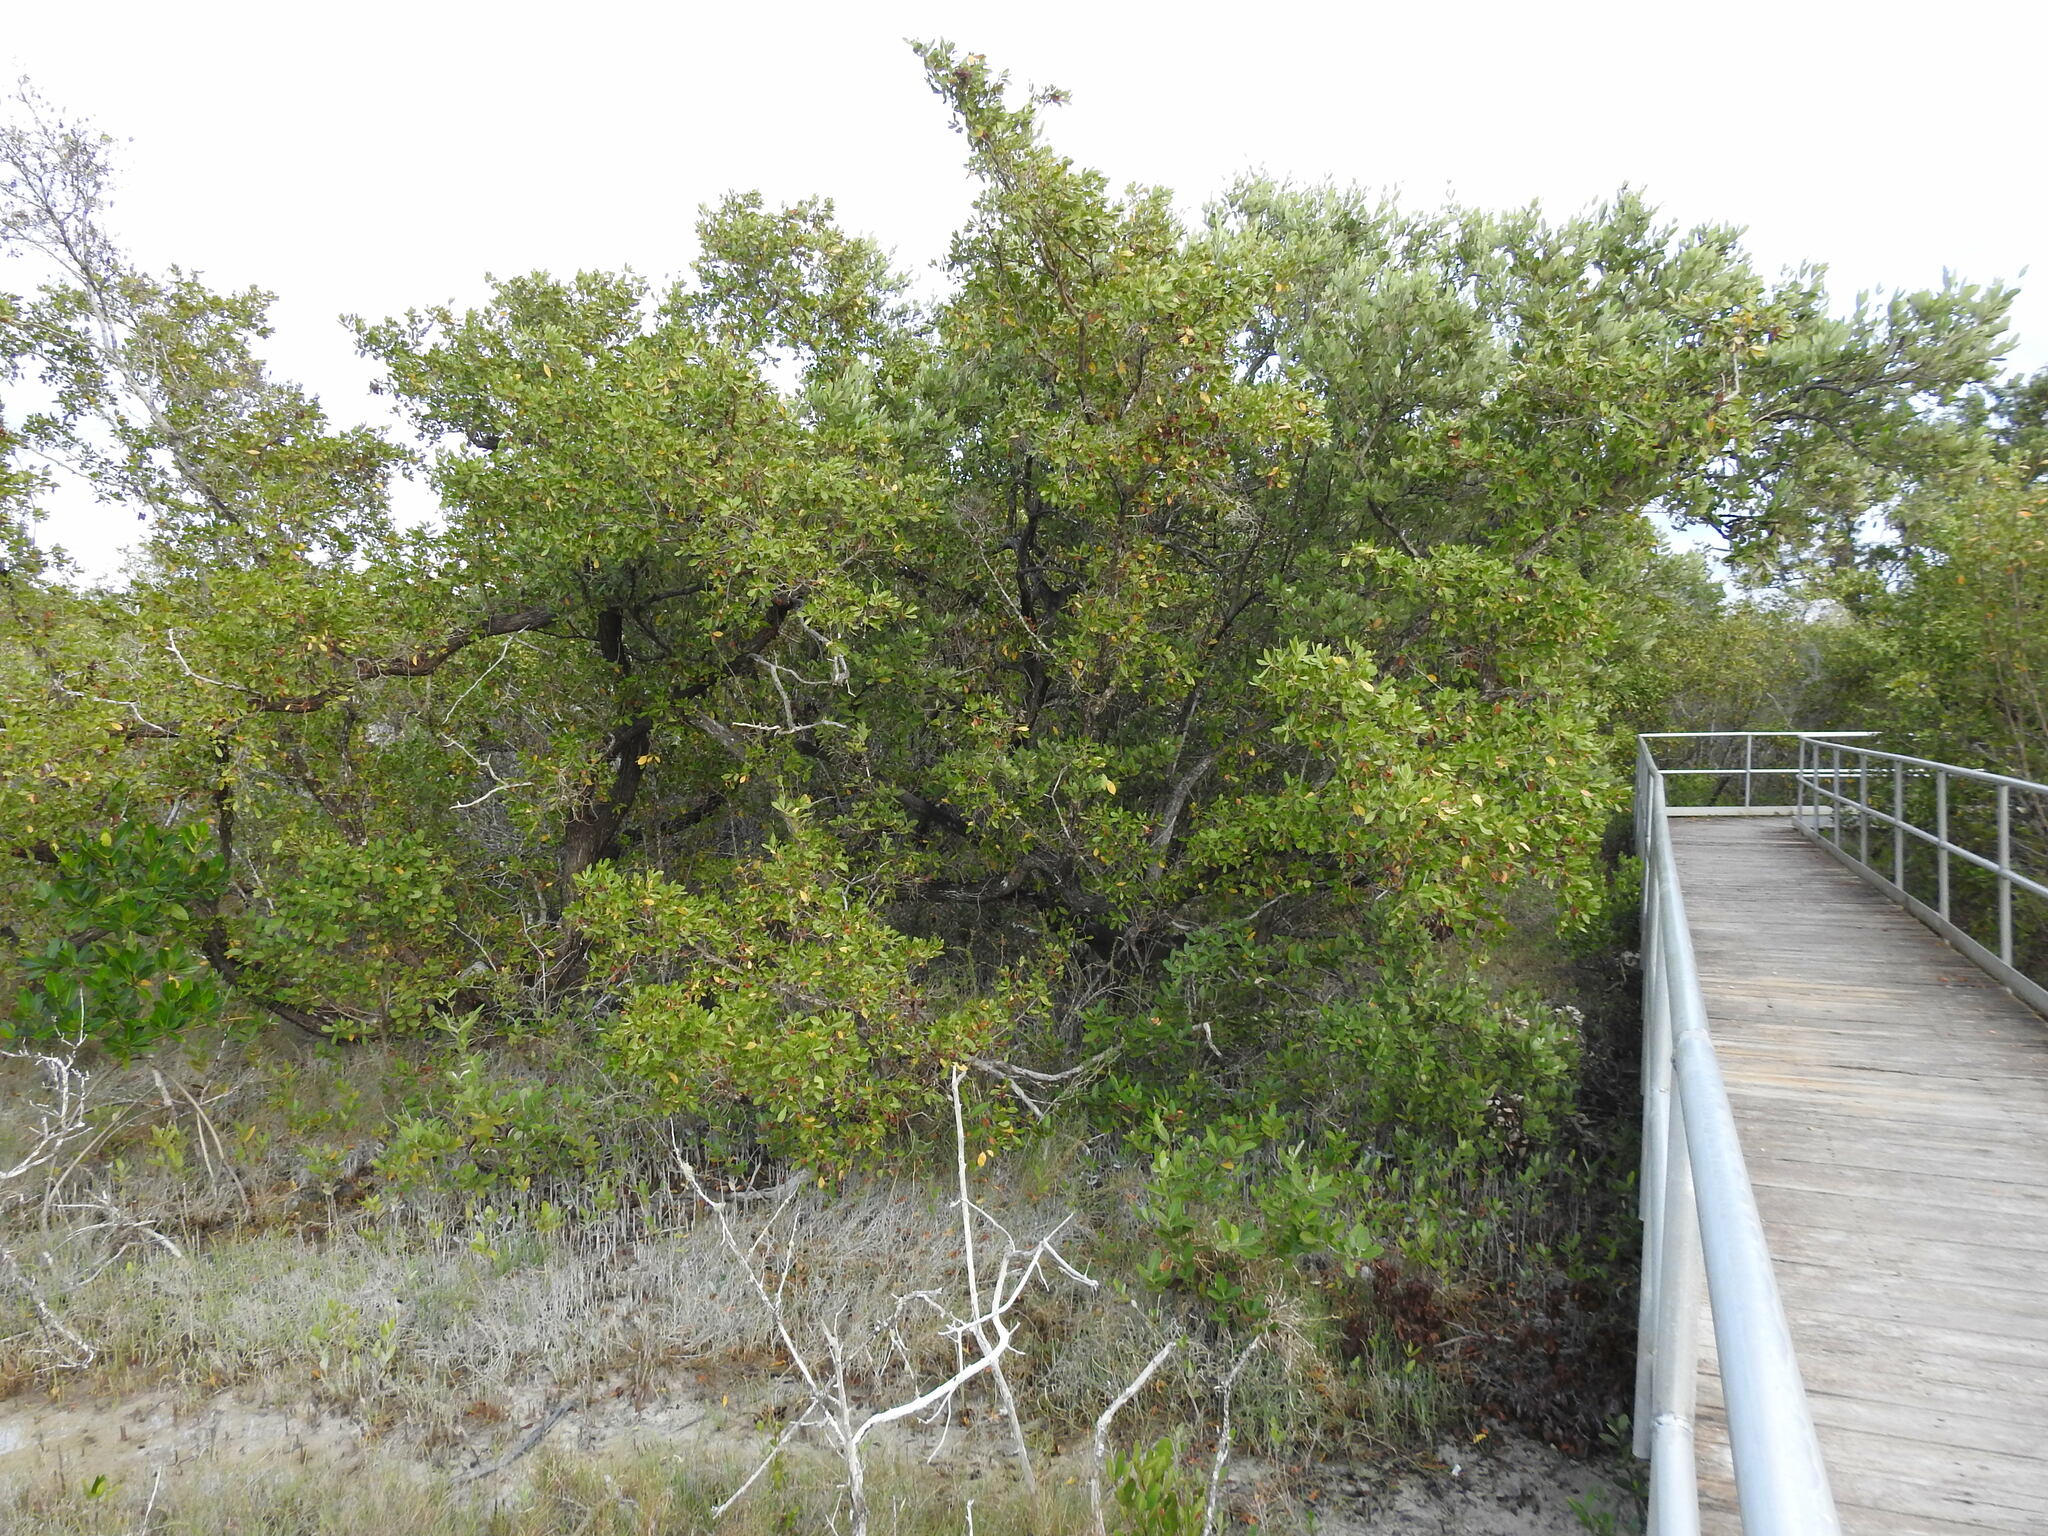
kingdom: Plantae
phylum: Tracheophyta
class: Magnoliopsida
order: Myrtales
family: Combretaceae
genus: Conocarpus
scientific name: Conocarpus erectus
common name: Button mangrove
